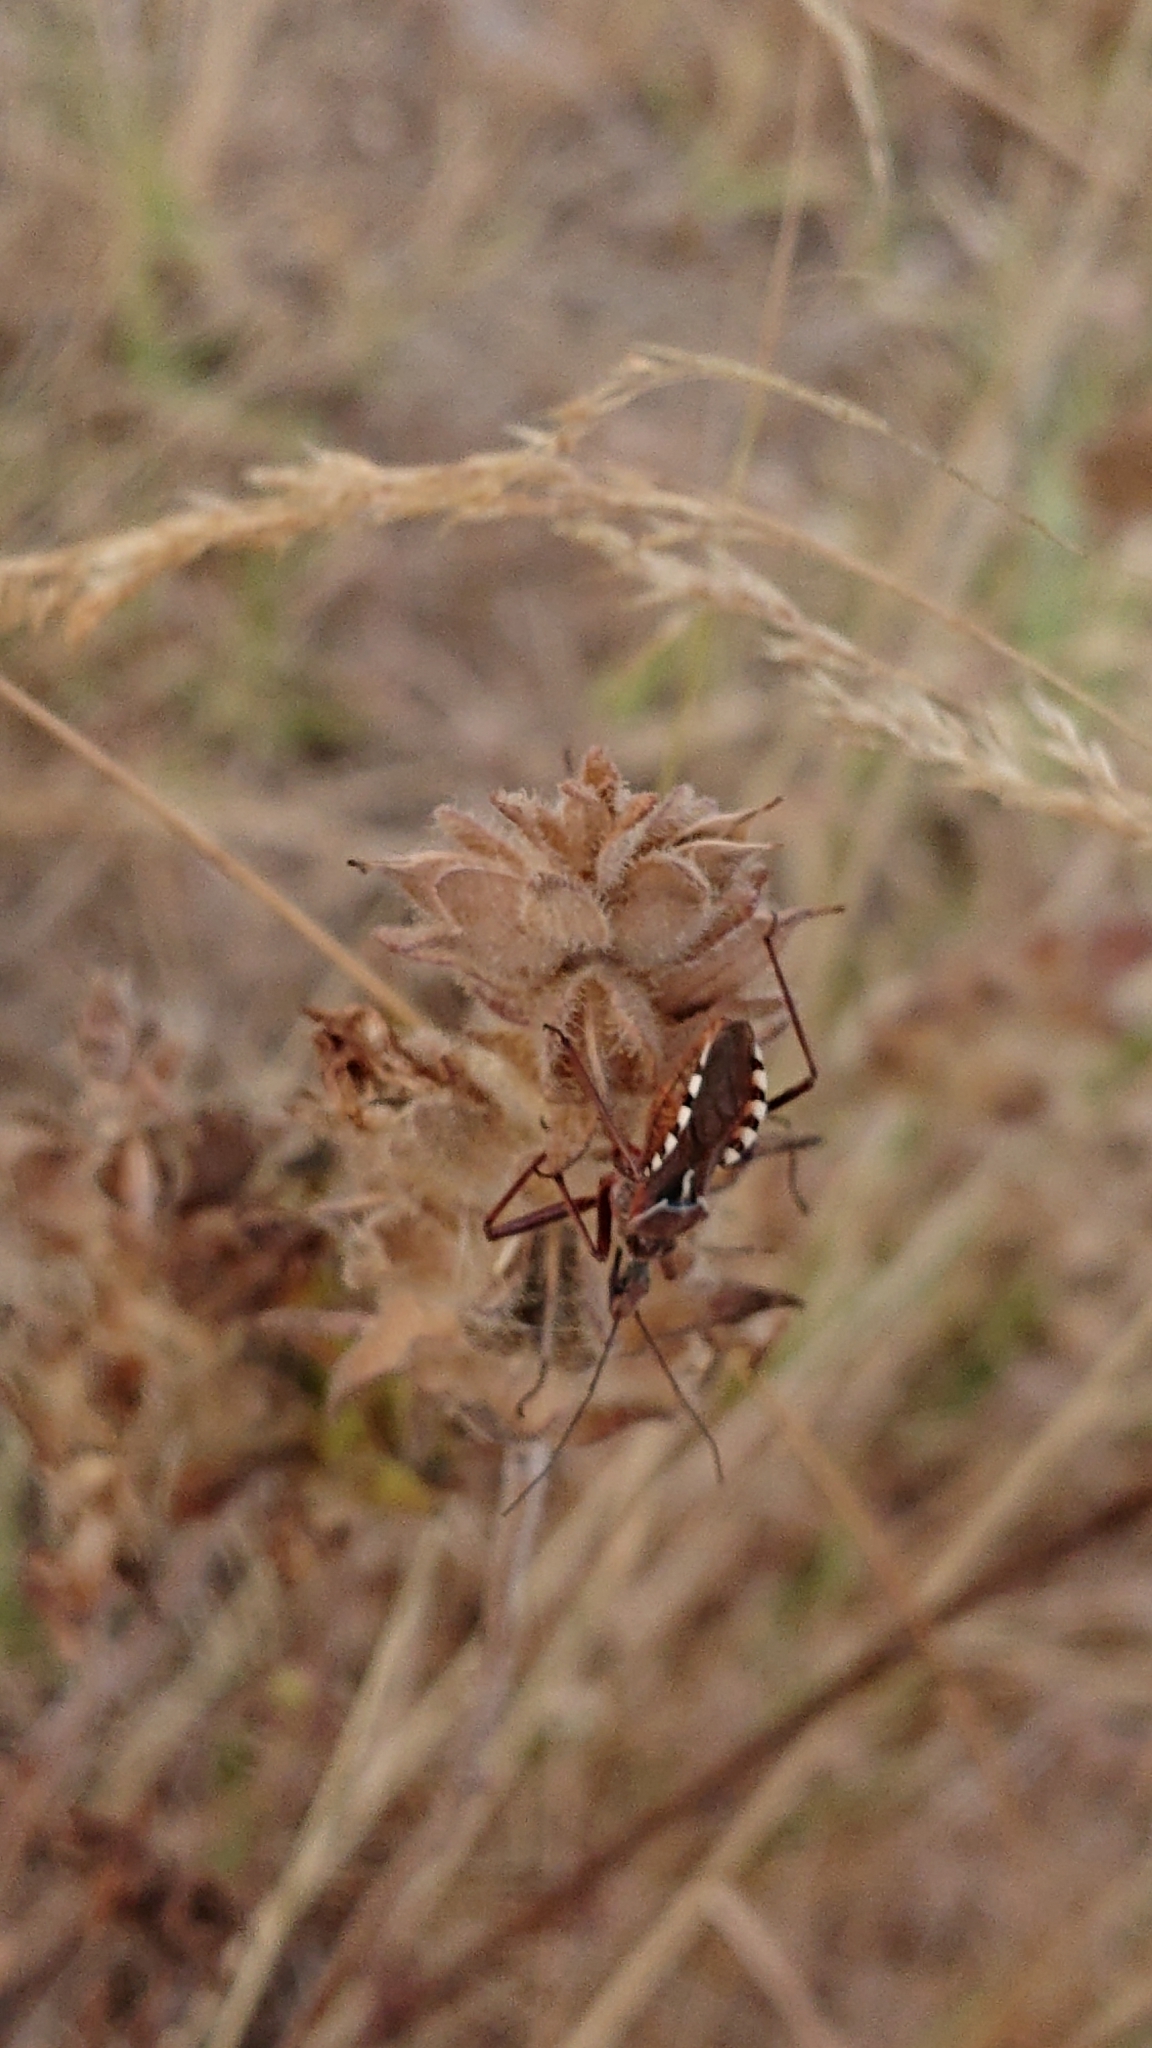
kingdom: Animalia
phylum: Arthropoda
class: Insecta
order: Hemiptera
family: Reduviidae
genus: Rhynocoris
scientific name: Rhynocoris erythropus
